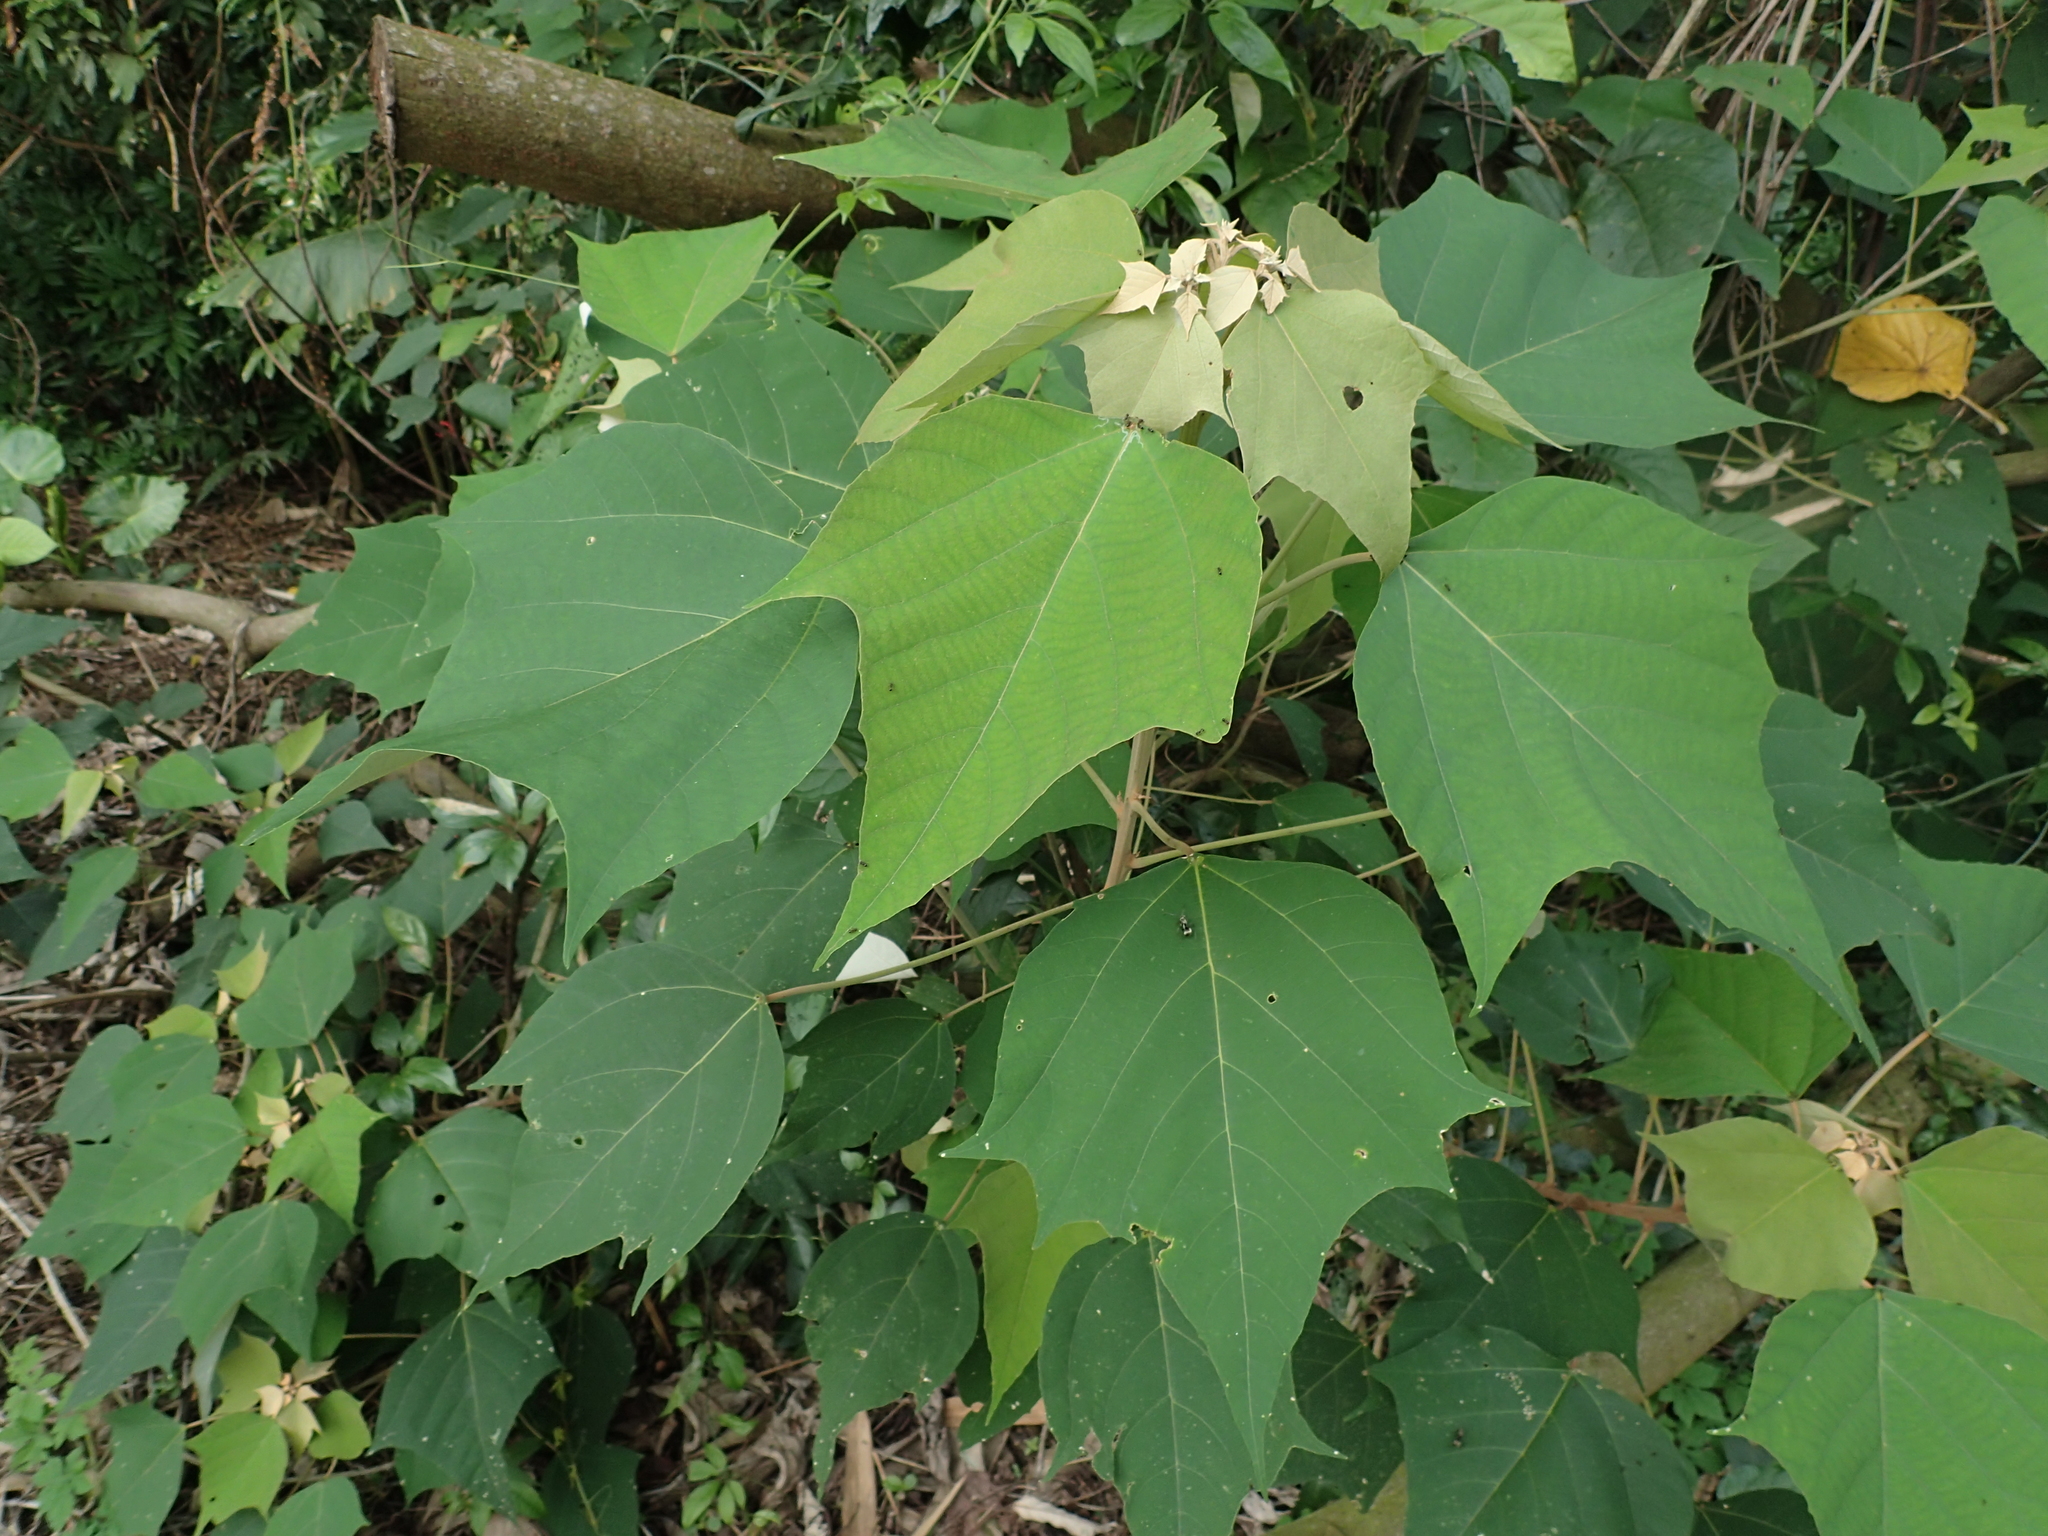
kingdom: Plantae
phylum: Tracheophyta
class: Magnoliopsida
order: Malpighiales
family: Euphorbiaceae
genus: Mallotus
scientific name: Mallotus paniculatus
